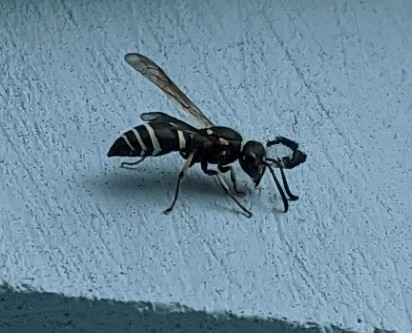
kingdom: Animalia
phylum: Arthropoda
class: Insecta
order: Hymenoptera
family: Vespidae
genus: Ancistrocerus
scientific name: Ancistrocerus albophaleratus
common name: White-banded potter wasp
